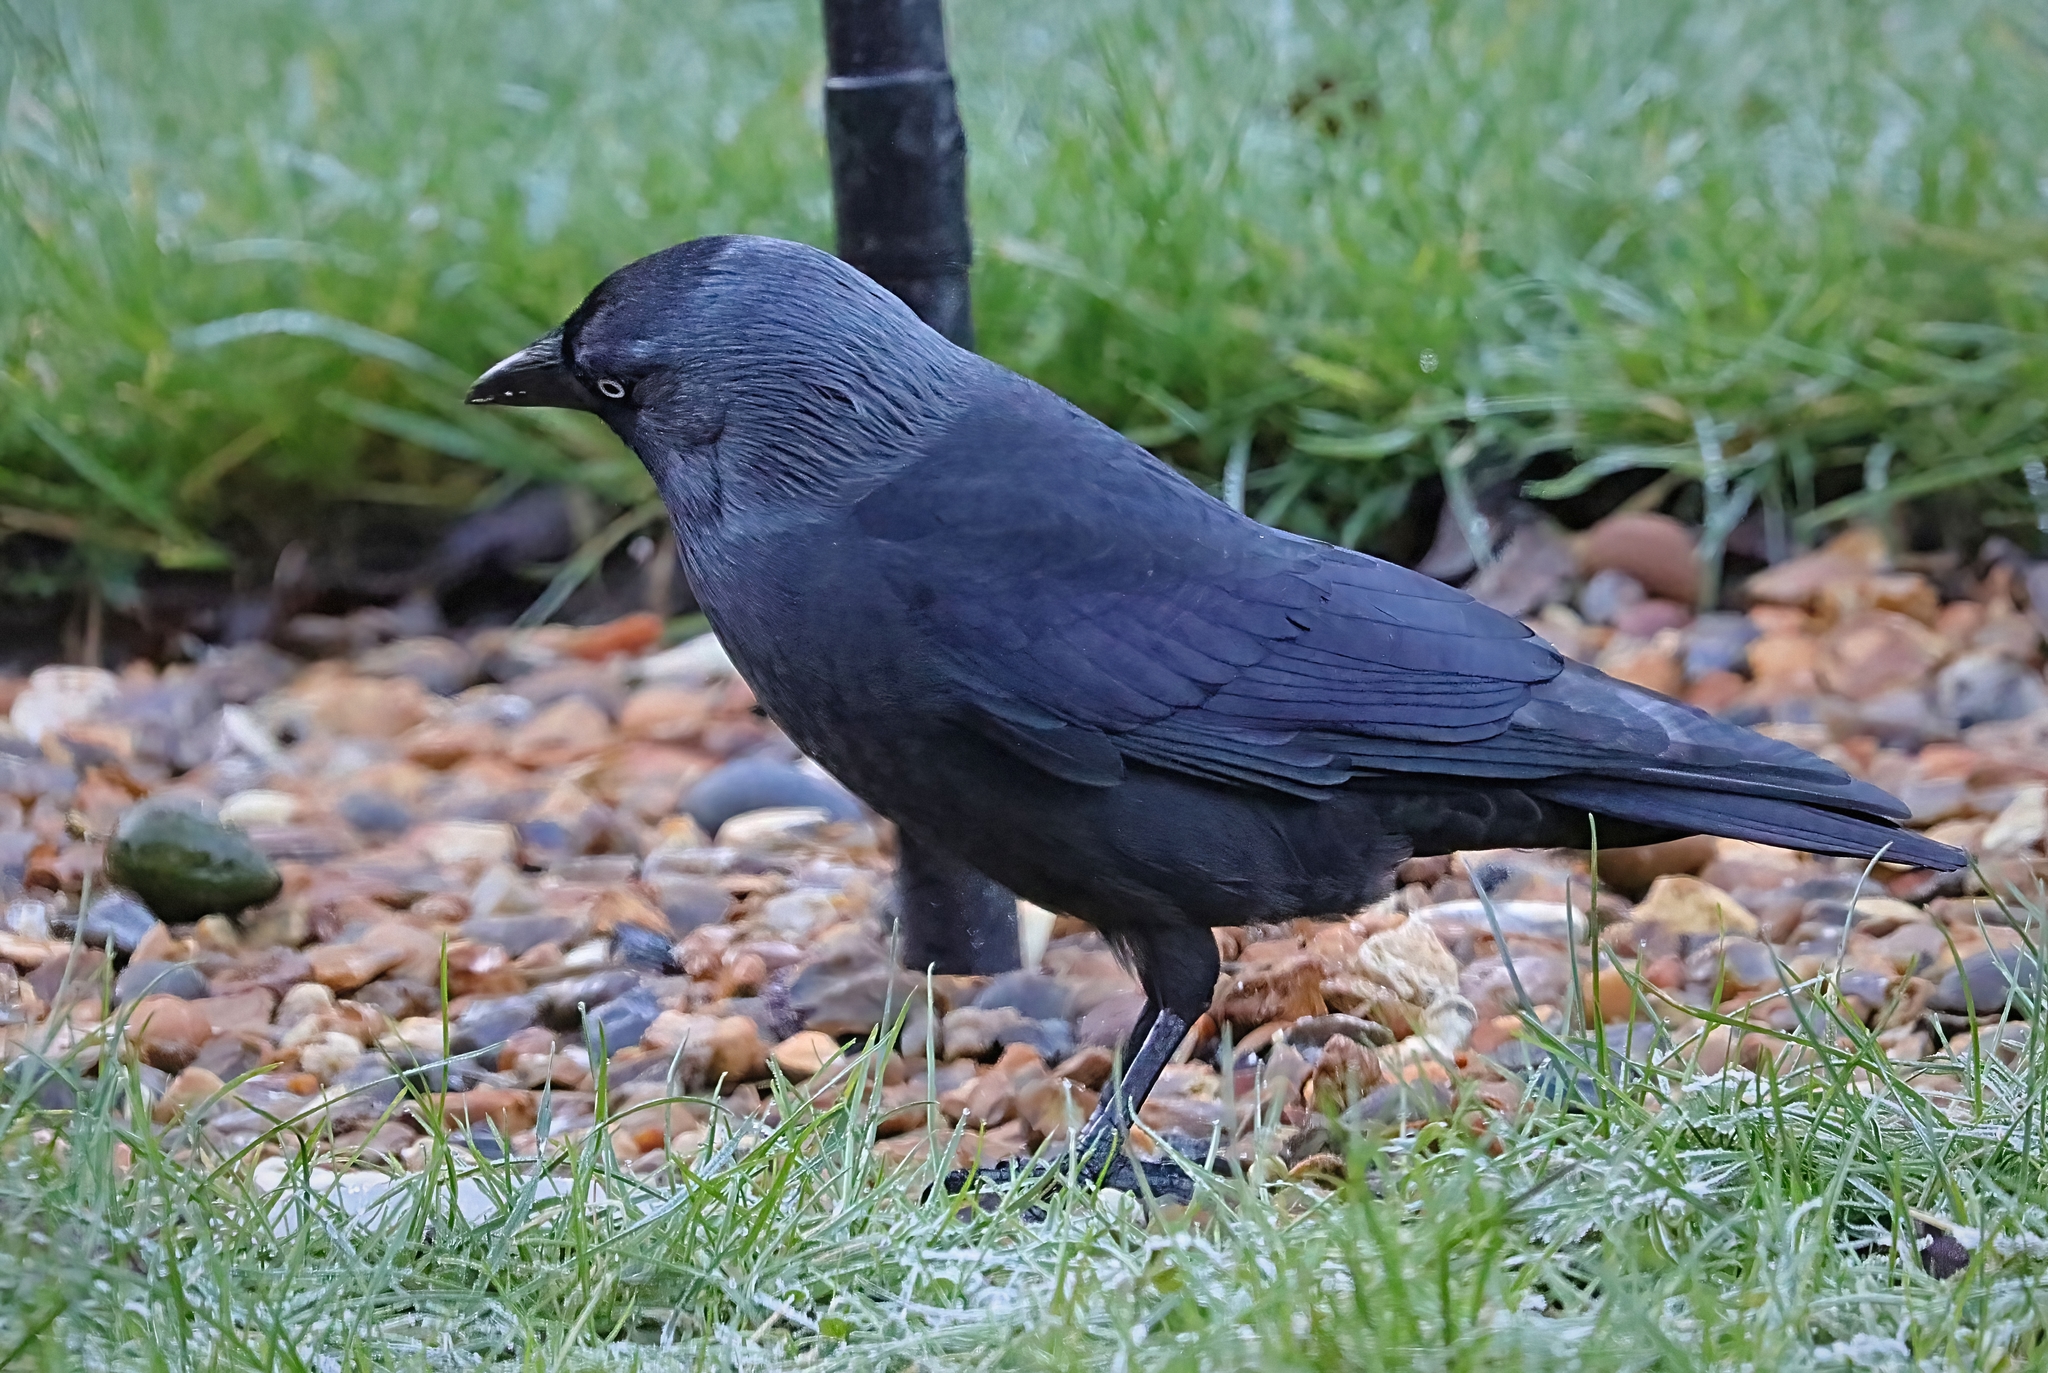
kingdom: Animalia
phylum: Chordata
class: Aves
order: Passeriformes
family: Corvidae
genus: Coloeus
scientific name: Coloeus monedula
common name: Western jackdaw
